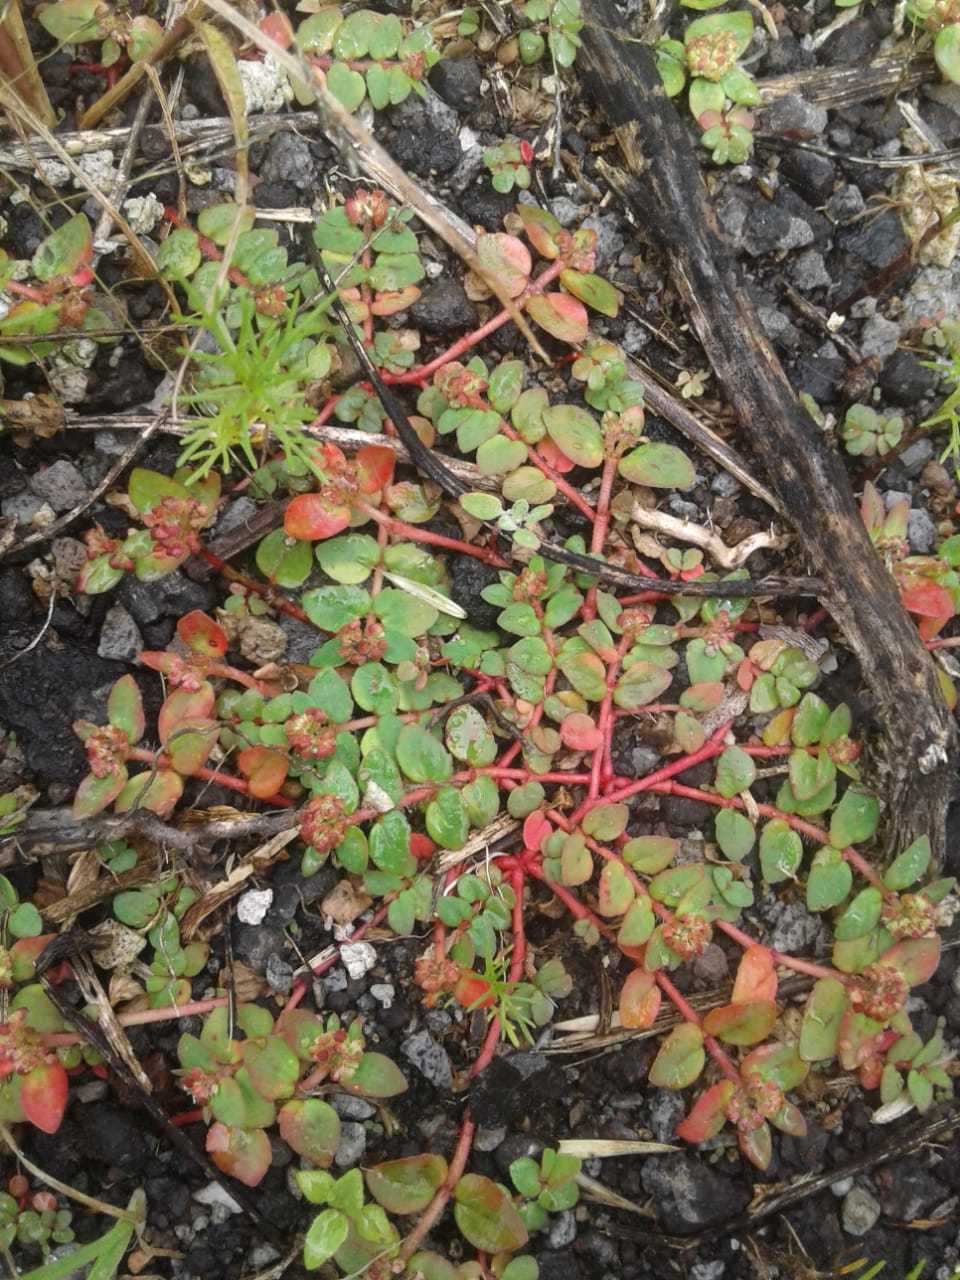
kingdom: Plantae
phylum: Tracheophyta
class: Magnoliopsida
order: Malpighiales
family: Euphorbiaceae
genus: Euphorbia
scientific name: Euphorbia ophthalmica
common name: Florida hammock sandmat
